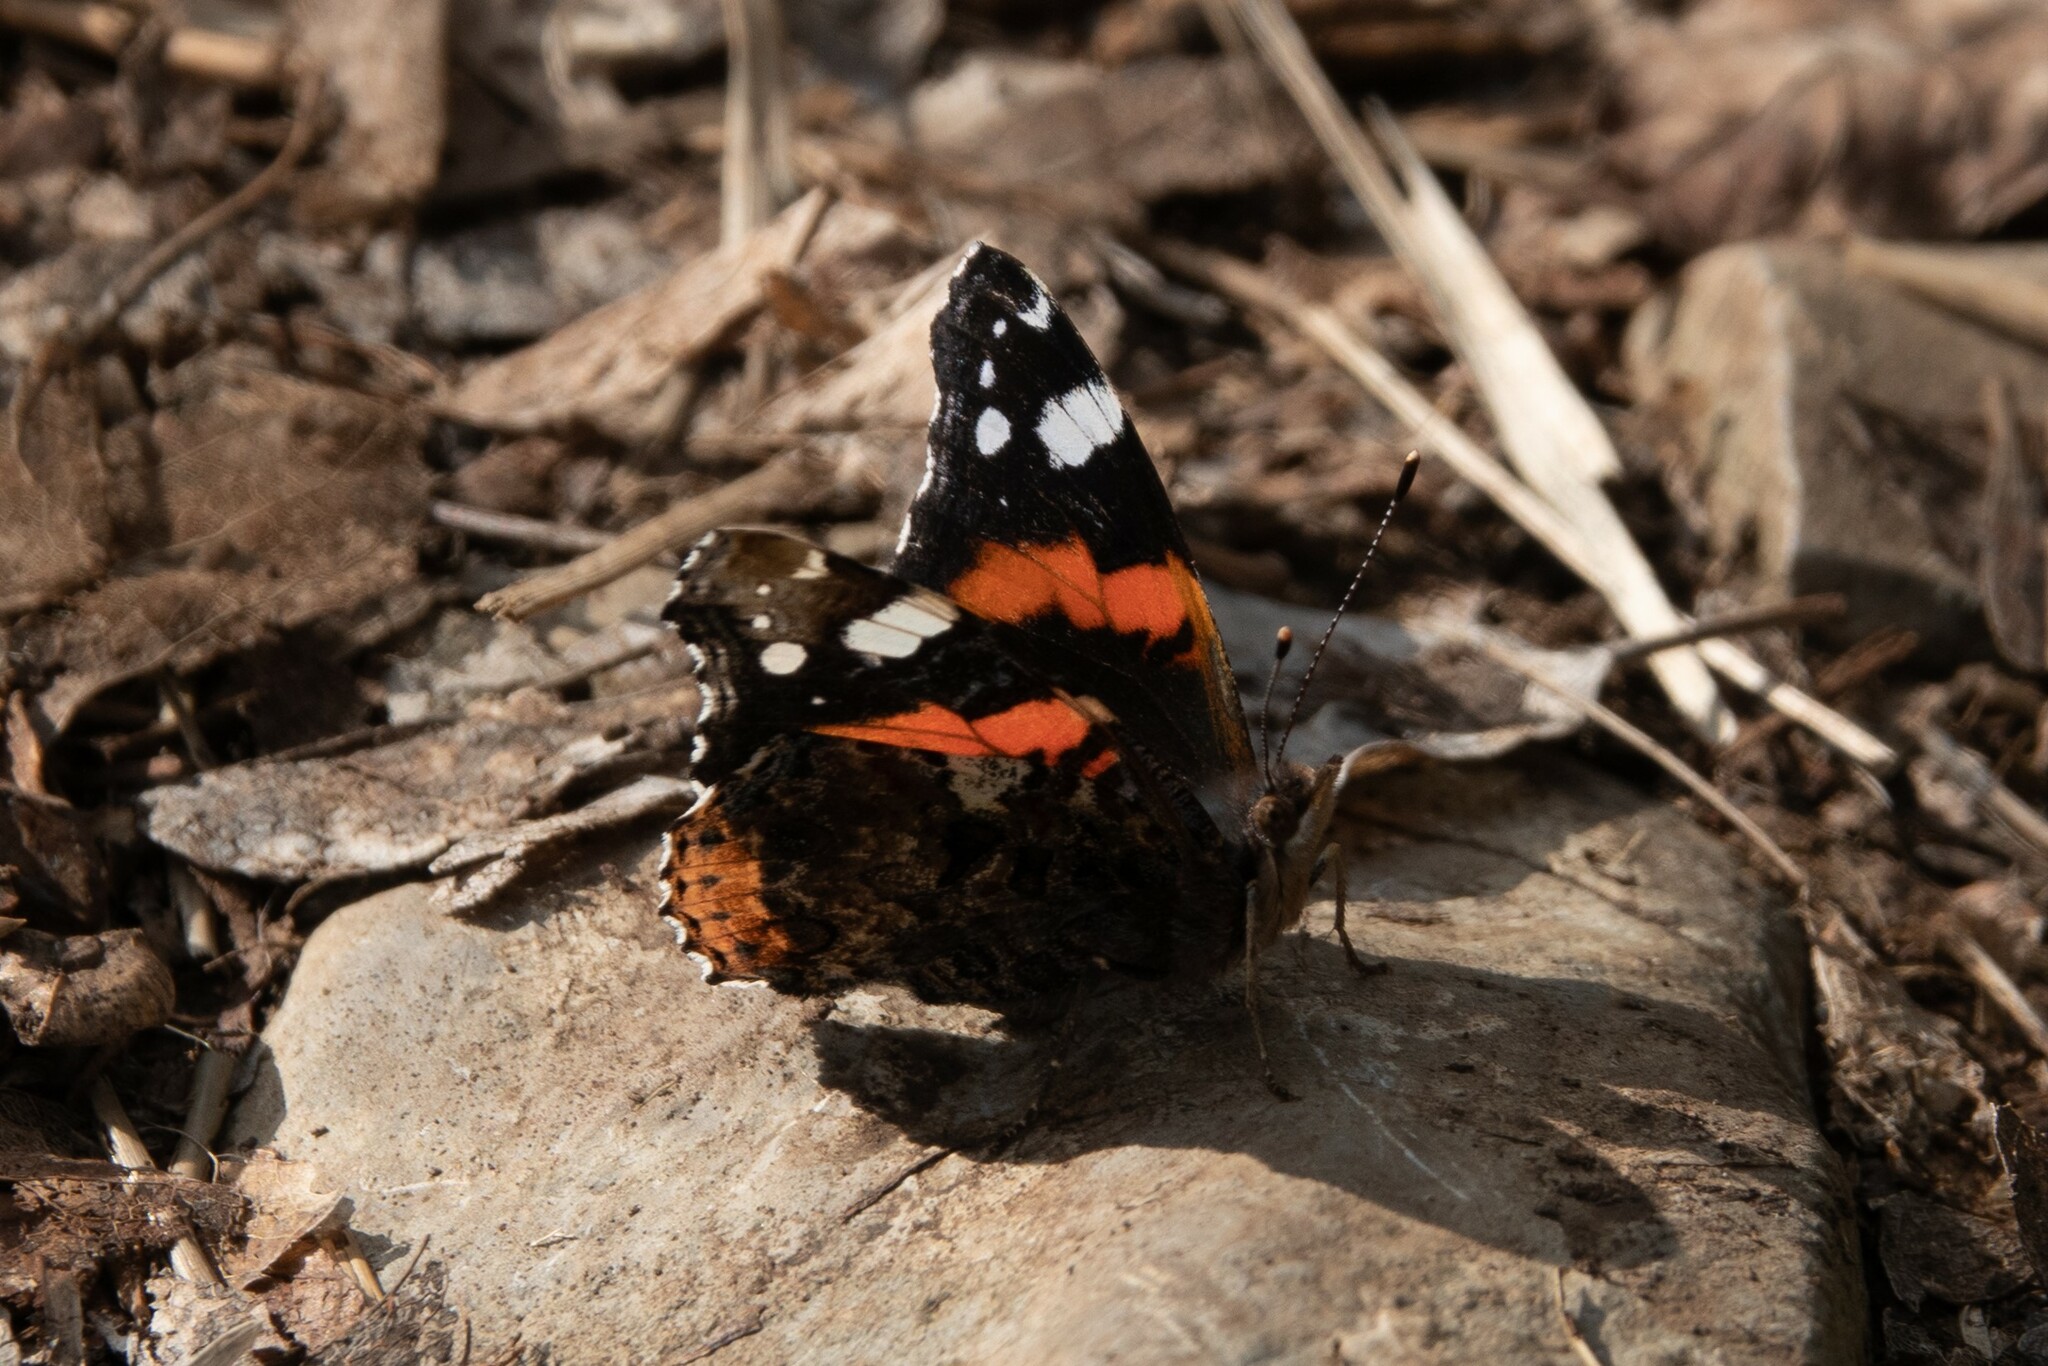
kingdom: Animalia
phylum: Arthropoda
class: Insecta
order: Lepidoptera
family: Nymphalidae
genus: Vanessa
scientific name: Vanessa atalanta
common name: Red admiral
